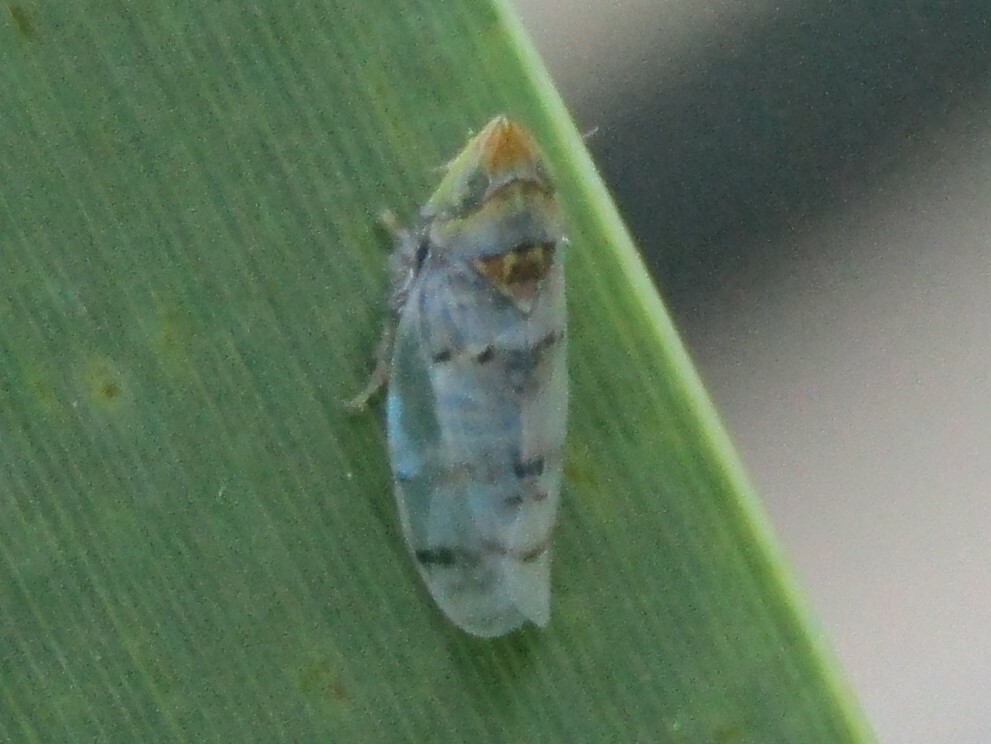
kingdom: Animalia
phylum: Arthropoda
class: Insecta
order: Hemiptera
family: Cicadellidae
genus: Japananus
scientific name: Japananus hyalinus
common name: The japanese maple leafhopper
